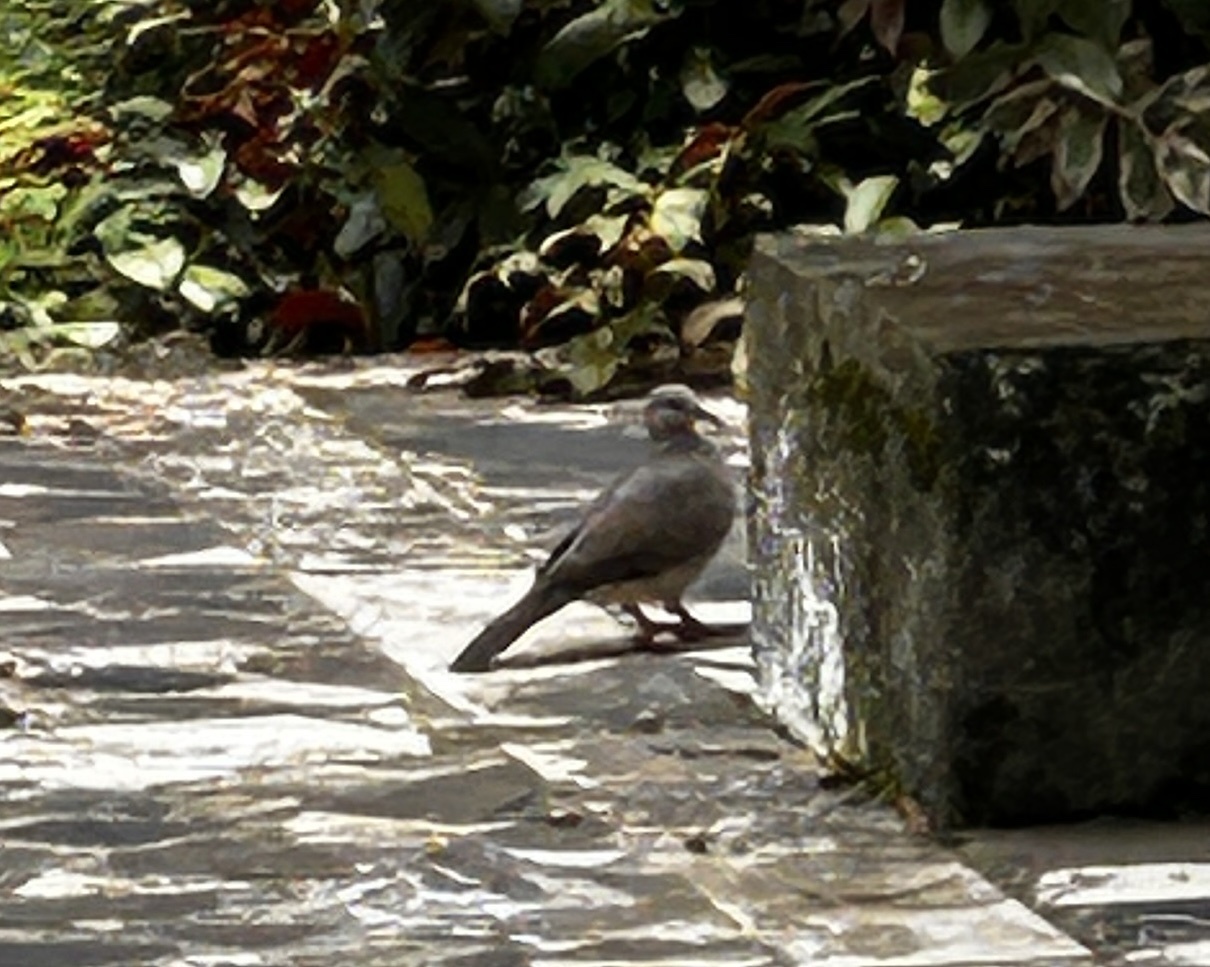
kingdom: Animalia
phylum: Chordata
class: Aves
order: Columbiformes
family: Columbidae
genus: Spilopelia
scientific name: Spilopelia chinensis
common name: Spotted dove
